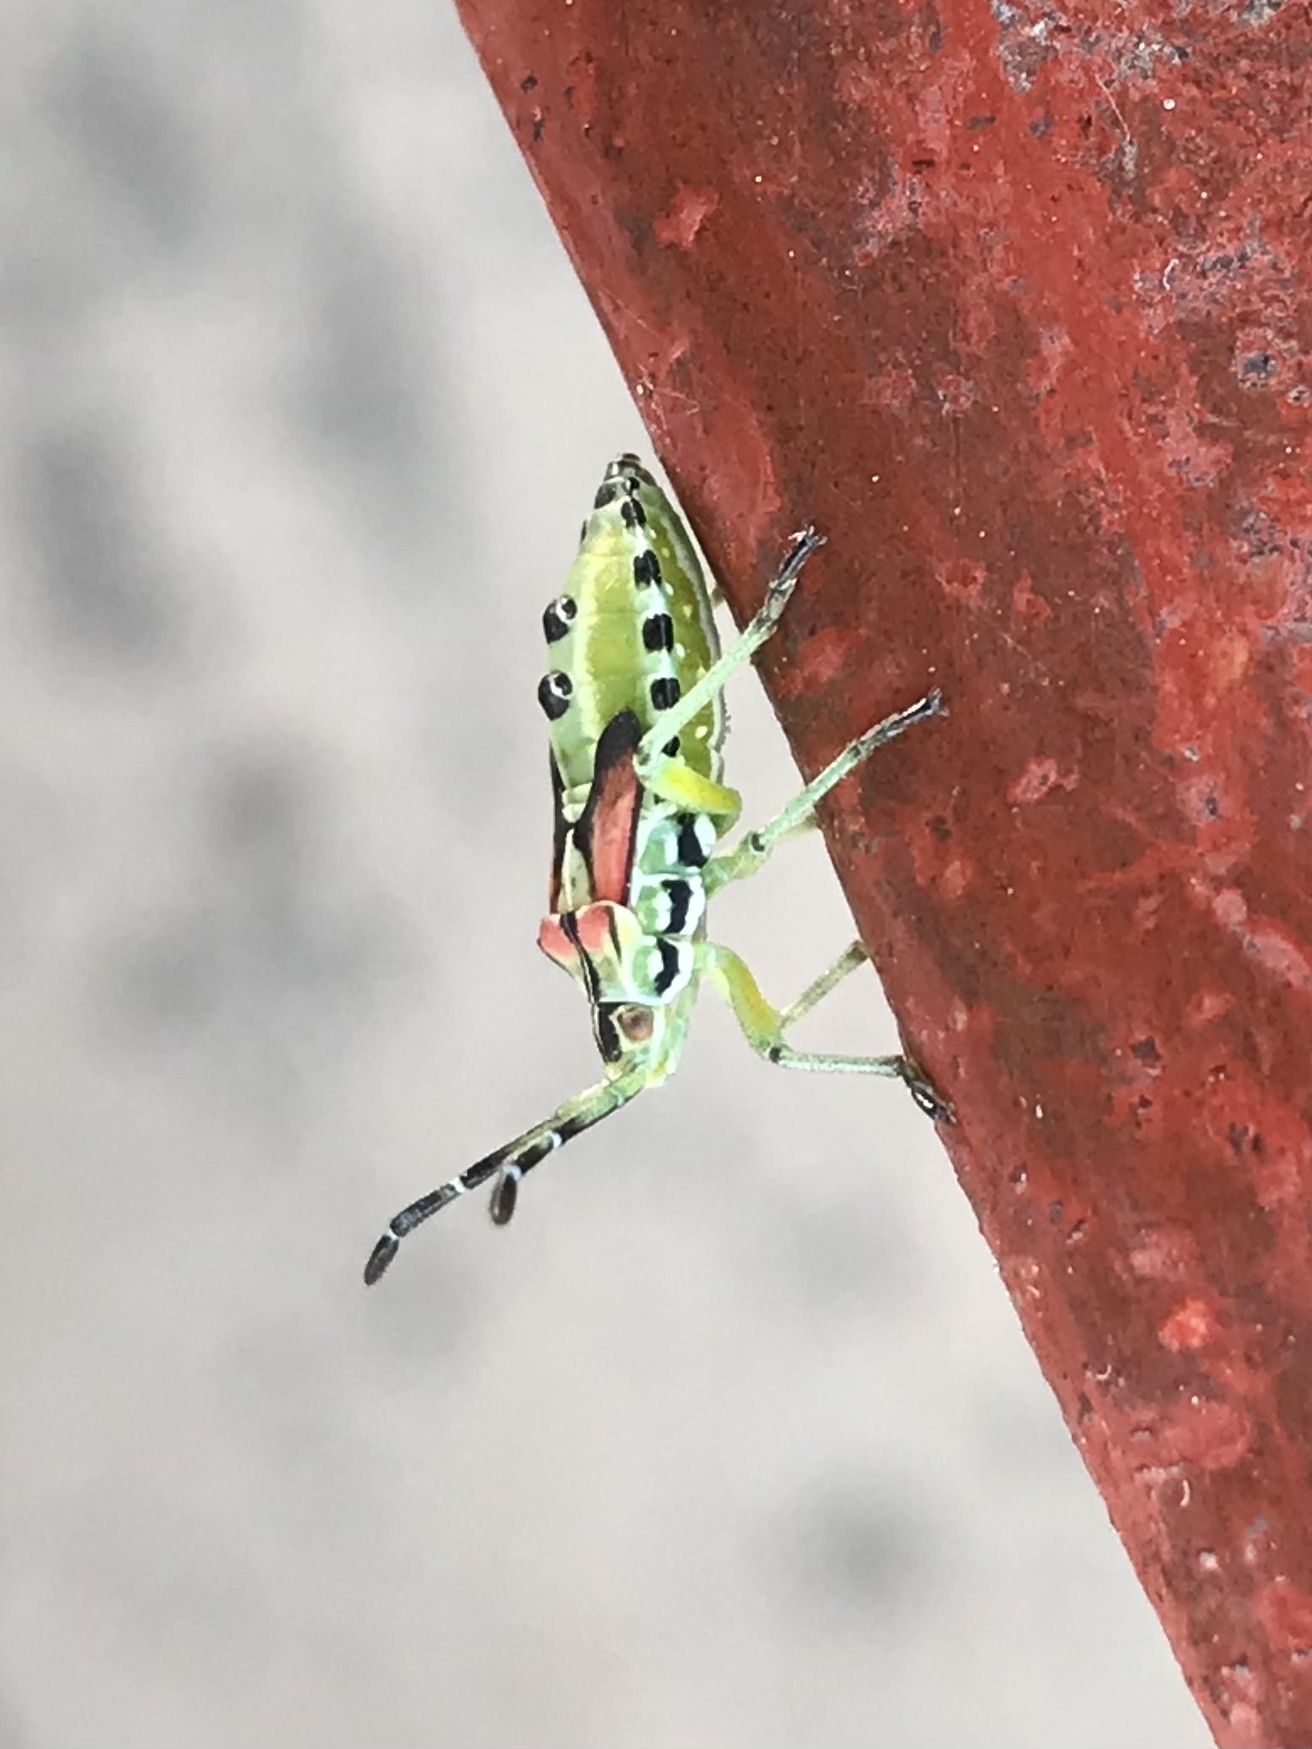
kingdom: Animalia
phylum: Arthropoda
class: Insecta
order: Hemiptera
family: Coreidae
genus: Ceratopachys
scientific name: Ceratopachys nigricornis
